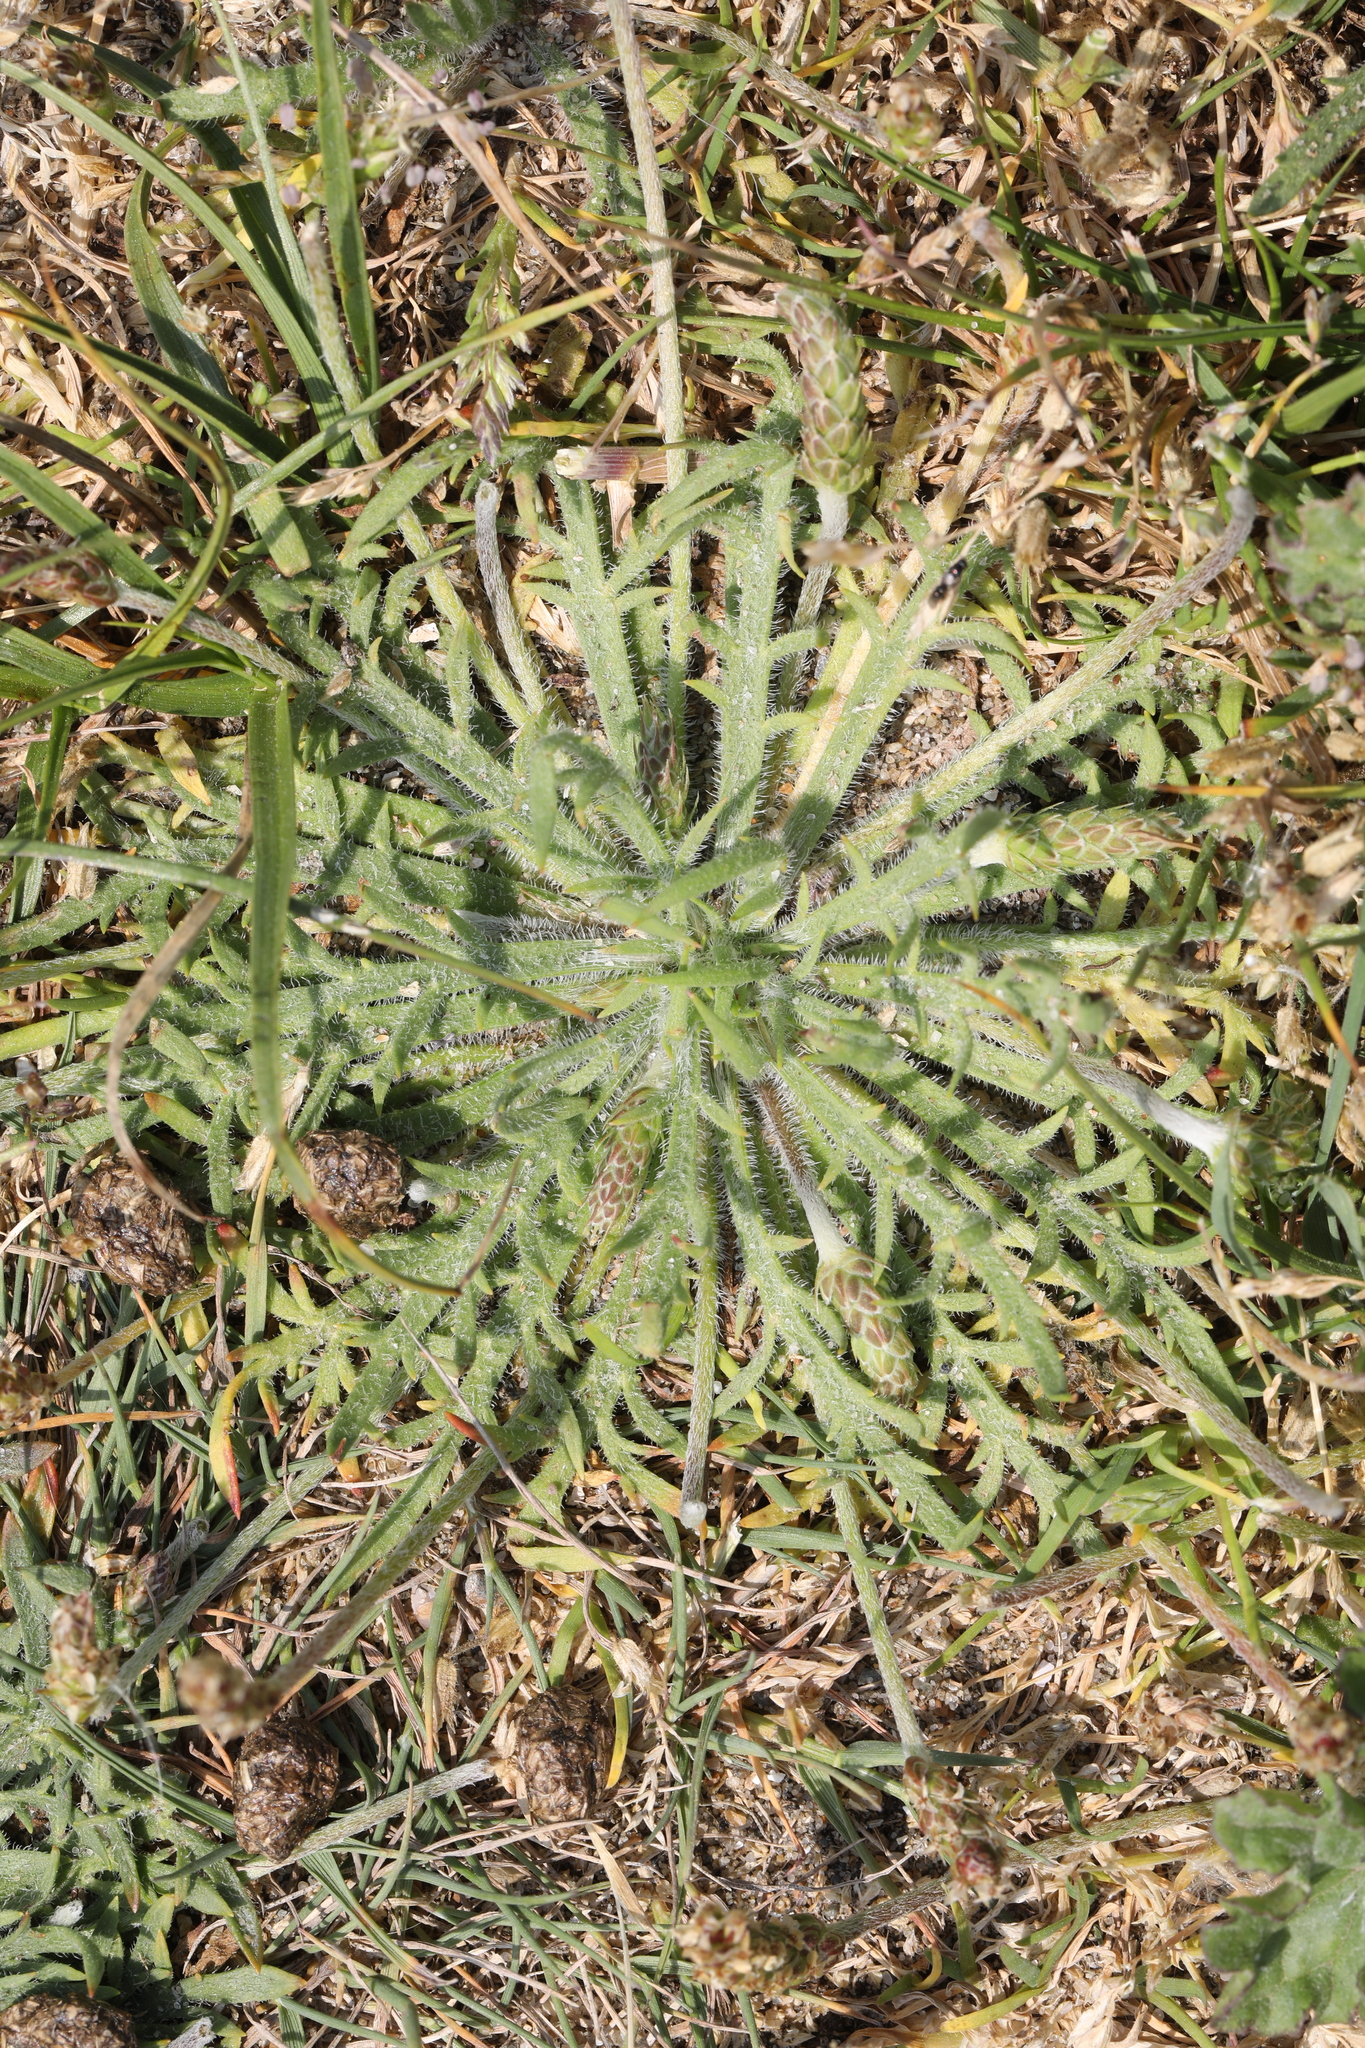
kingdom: Plantae
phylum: Tracheophyta
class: Magnoliopsida
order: Lamiales
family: Plantaginaceae
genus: Plantago
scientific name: Plantago coronopus
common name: Buck's-horn plantain
